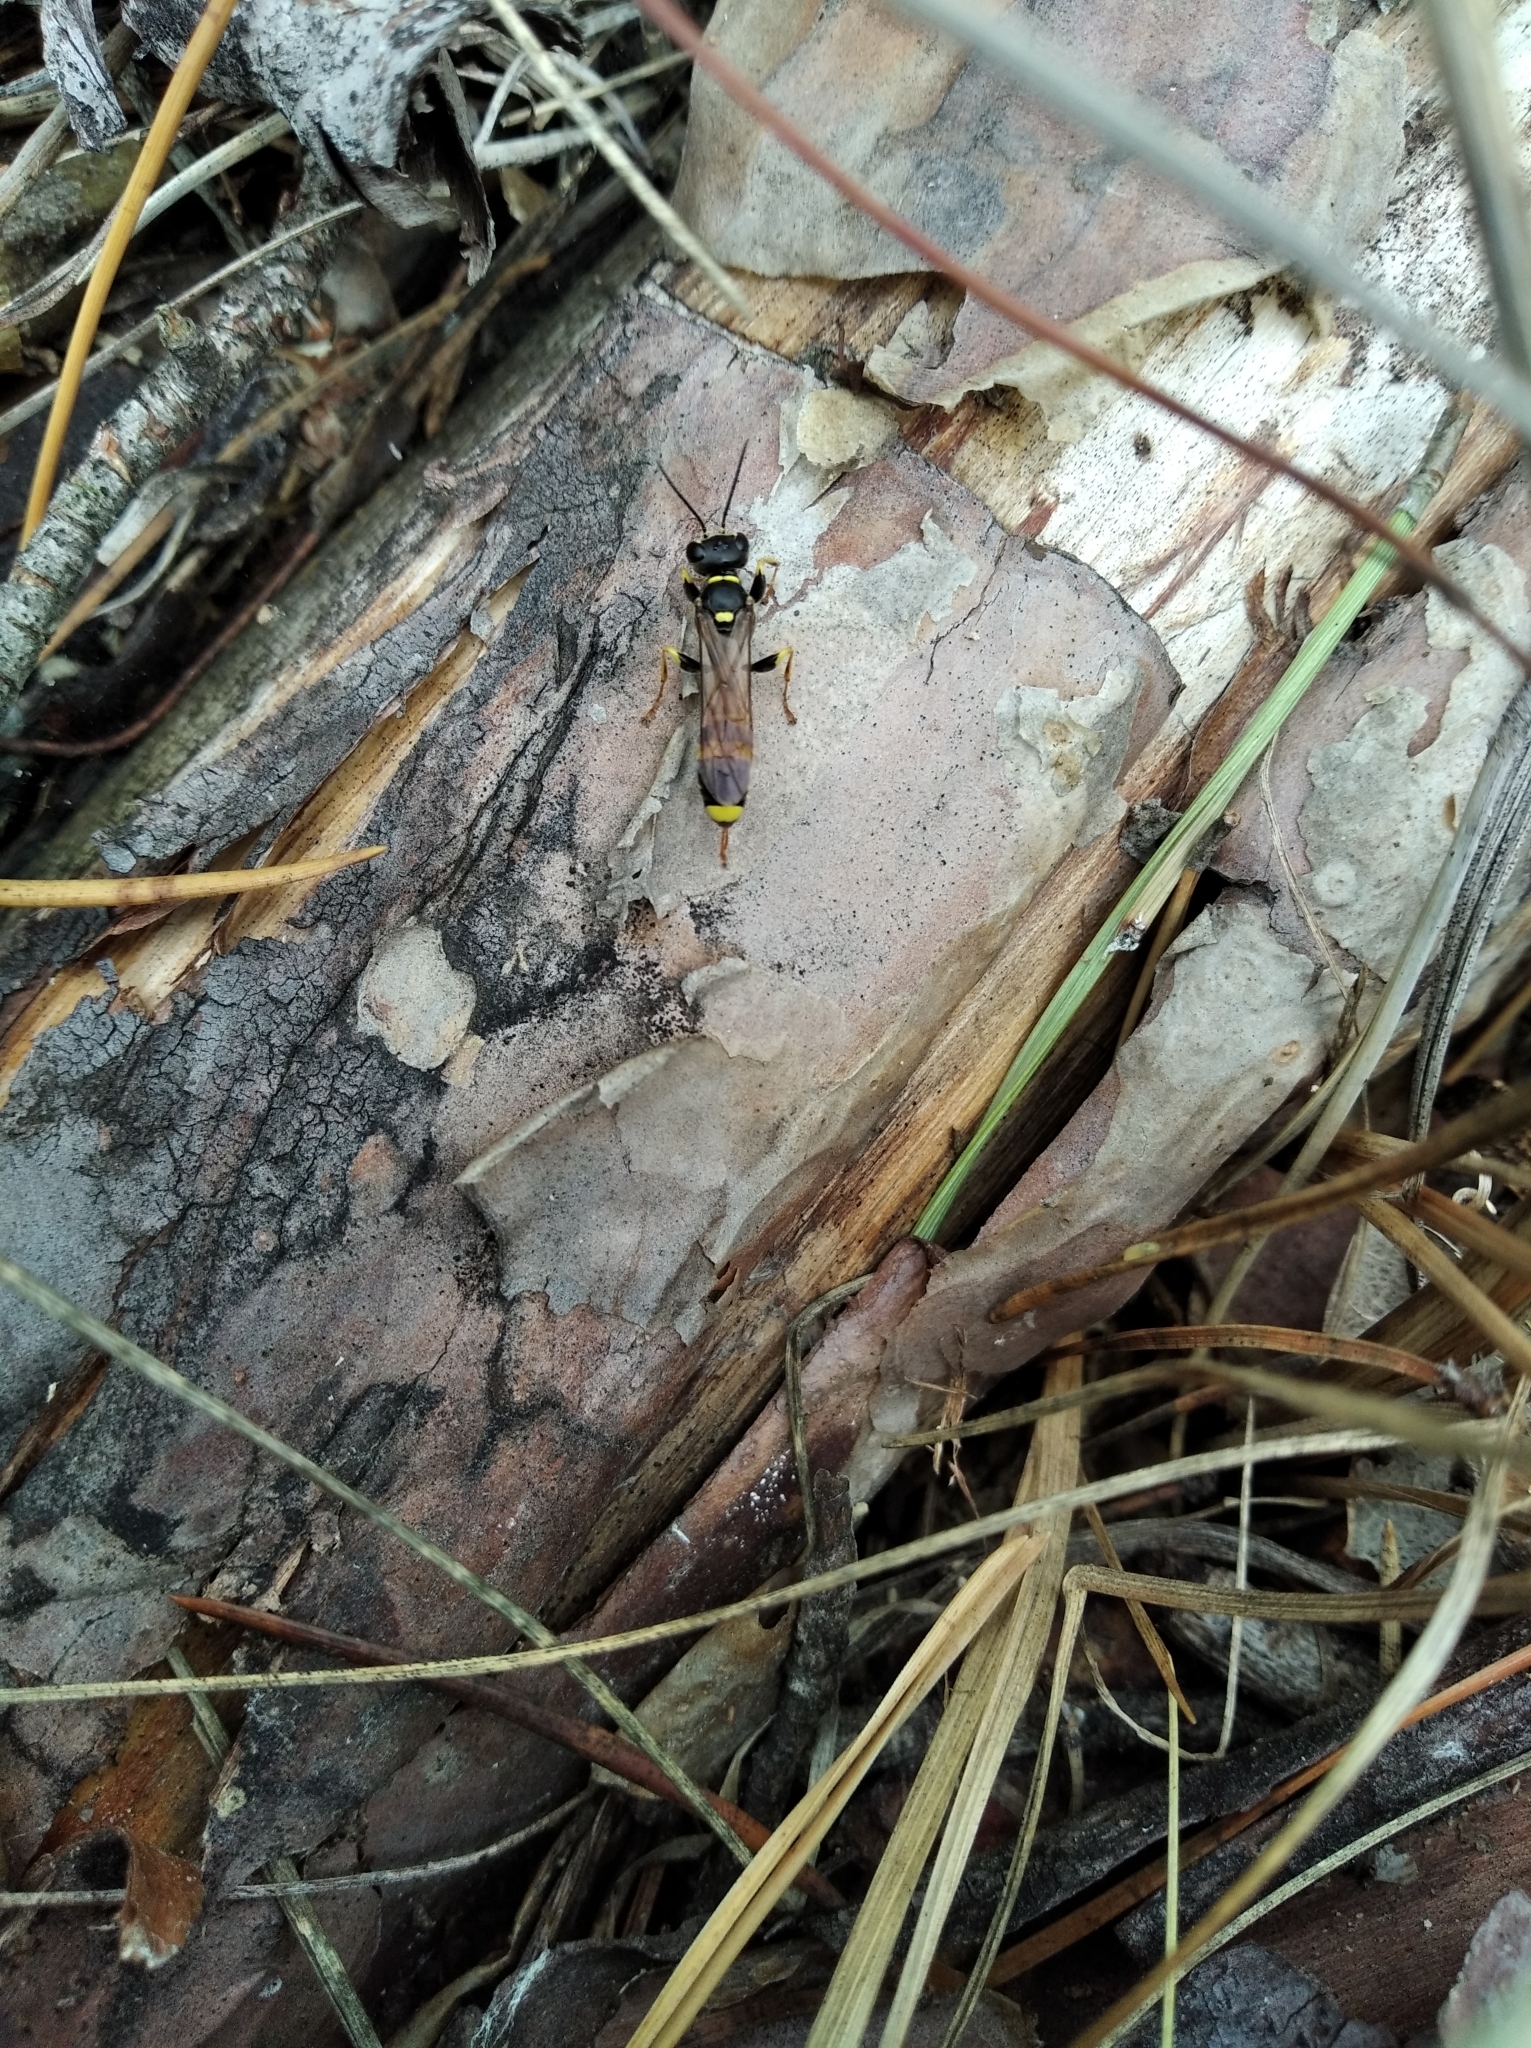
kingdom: Animalia
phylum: Arthropoda
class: Insecta
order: Hymenoptera
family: Crabronidae
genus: Mellinus
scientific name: Mellinus arvensis
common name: Field digger wasp
